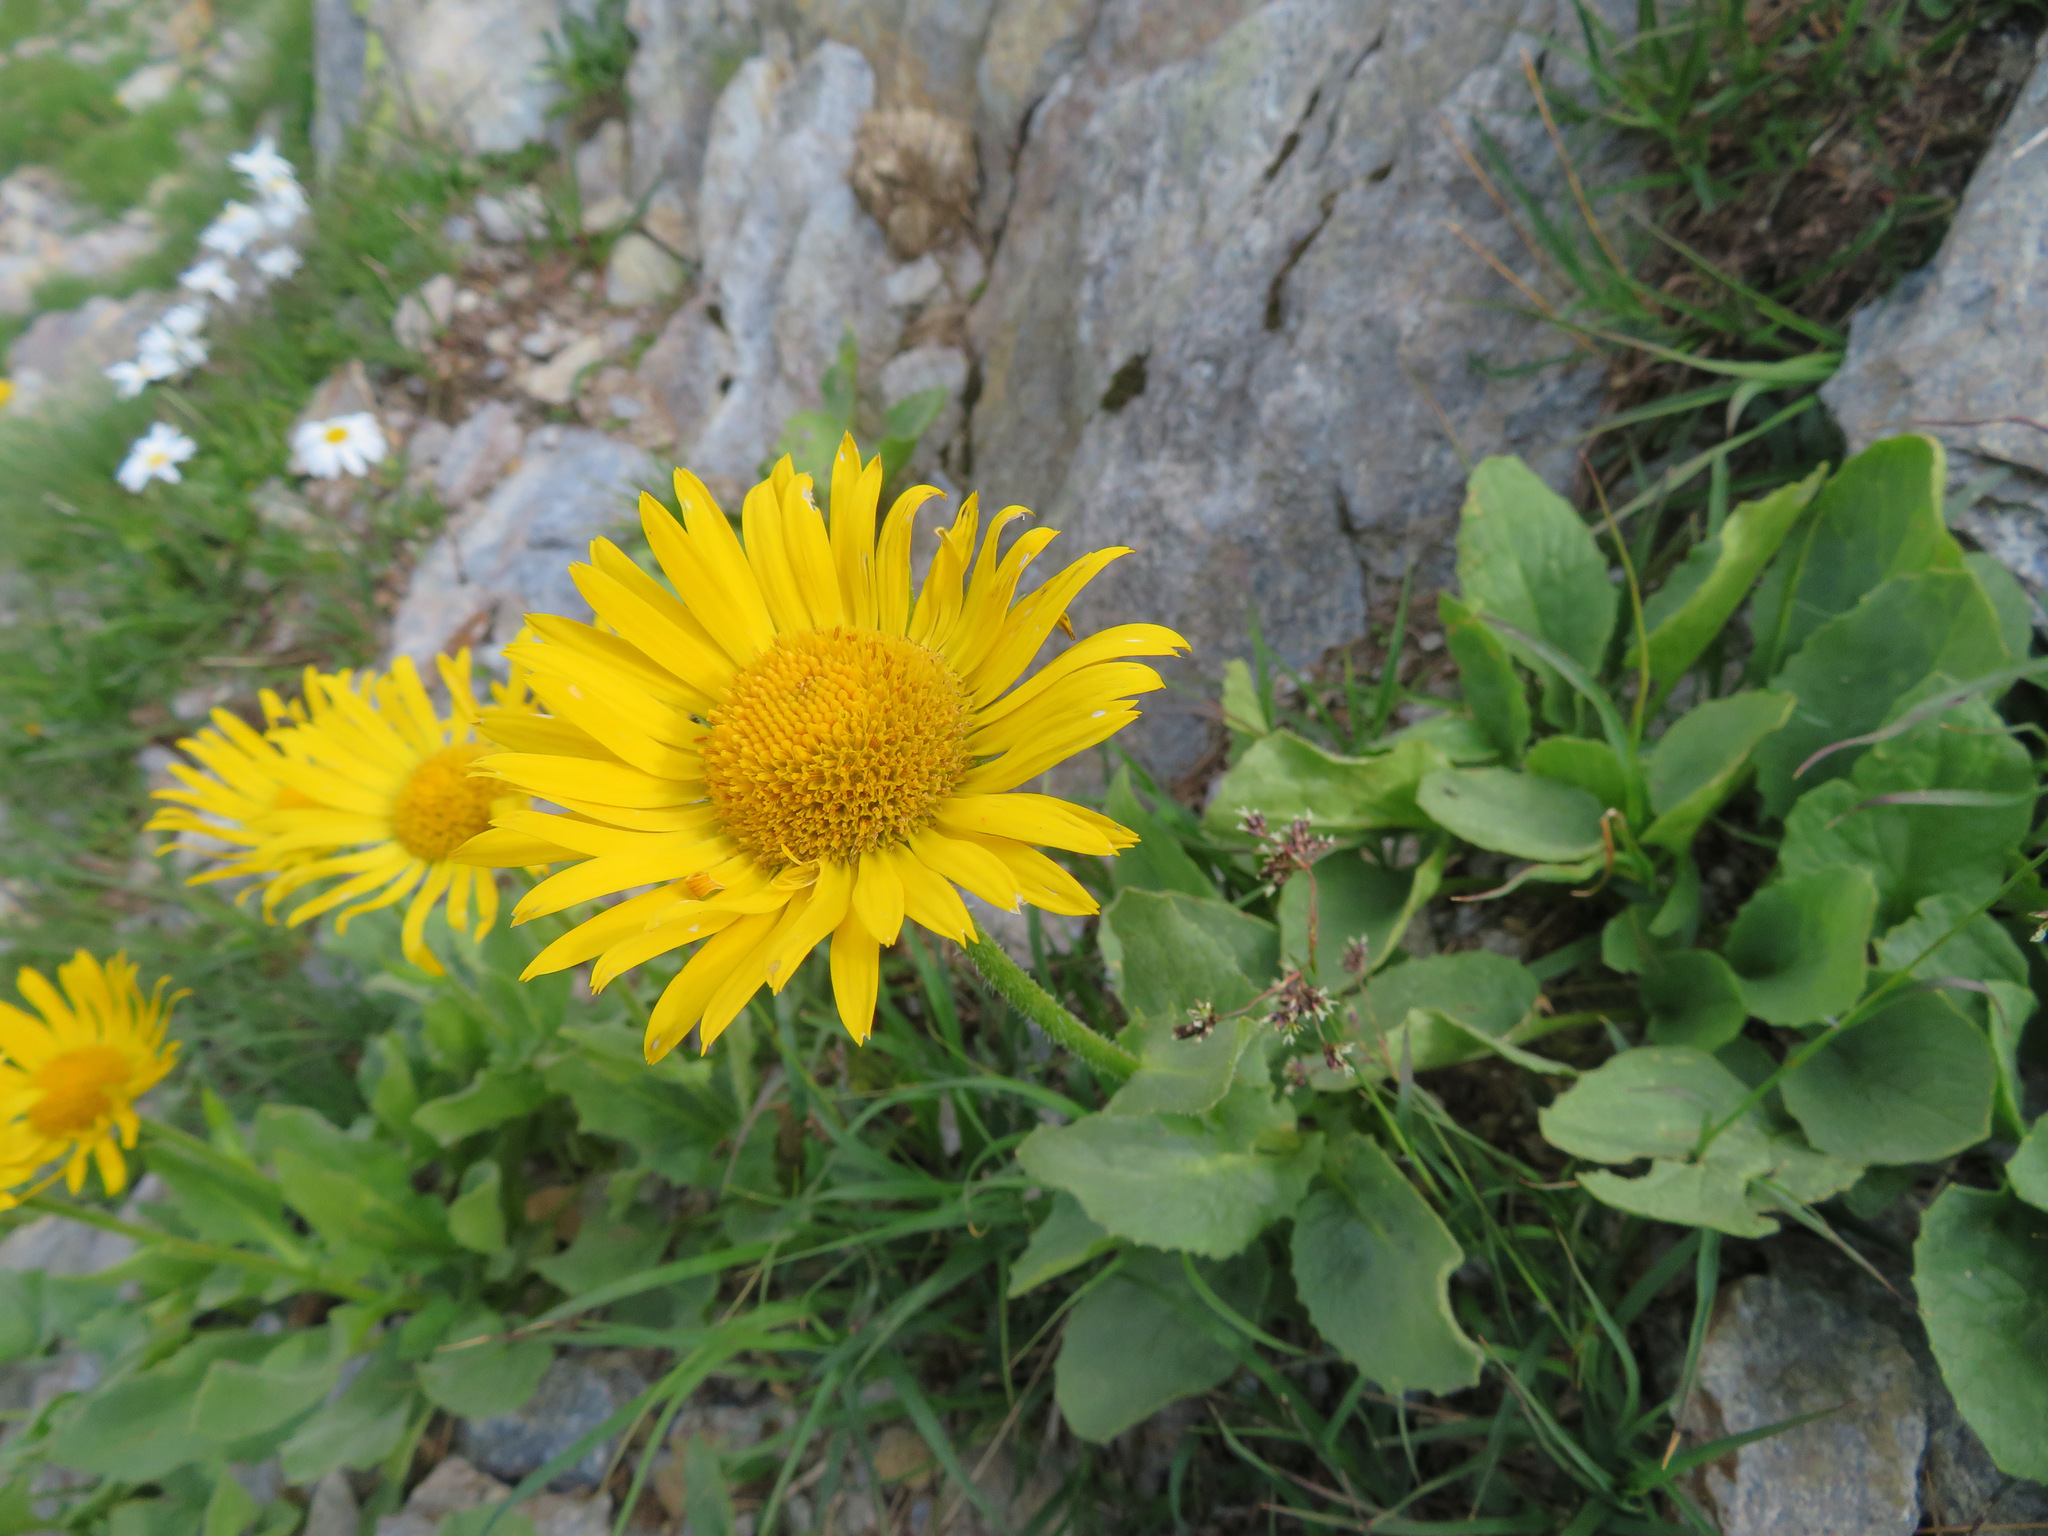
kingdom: Plantae
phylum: Tracheophyta
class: Magnoliopsida
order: Asterales
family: Asteraceae
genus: Doronicum
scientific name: Doronicum grandiflorum
